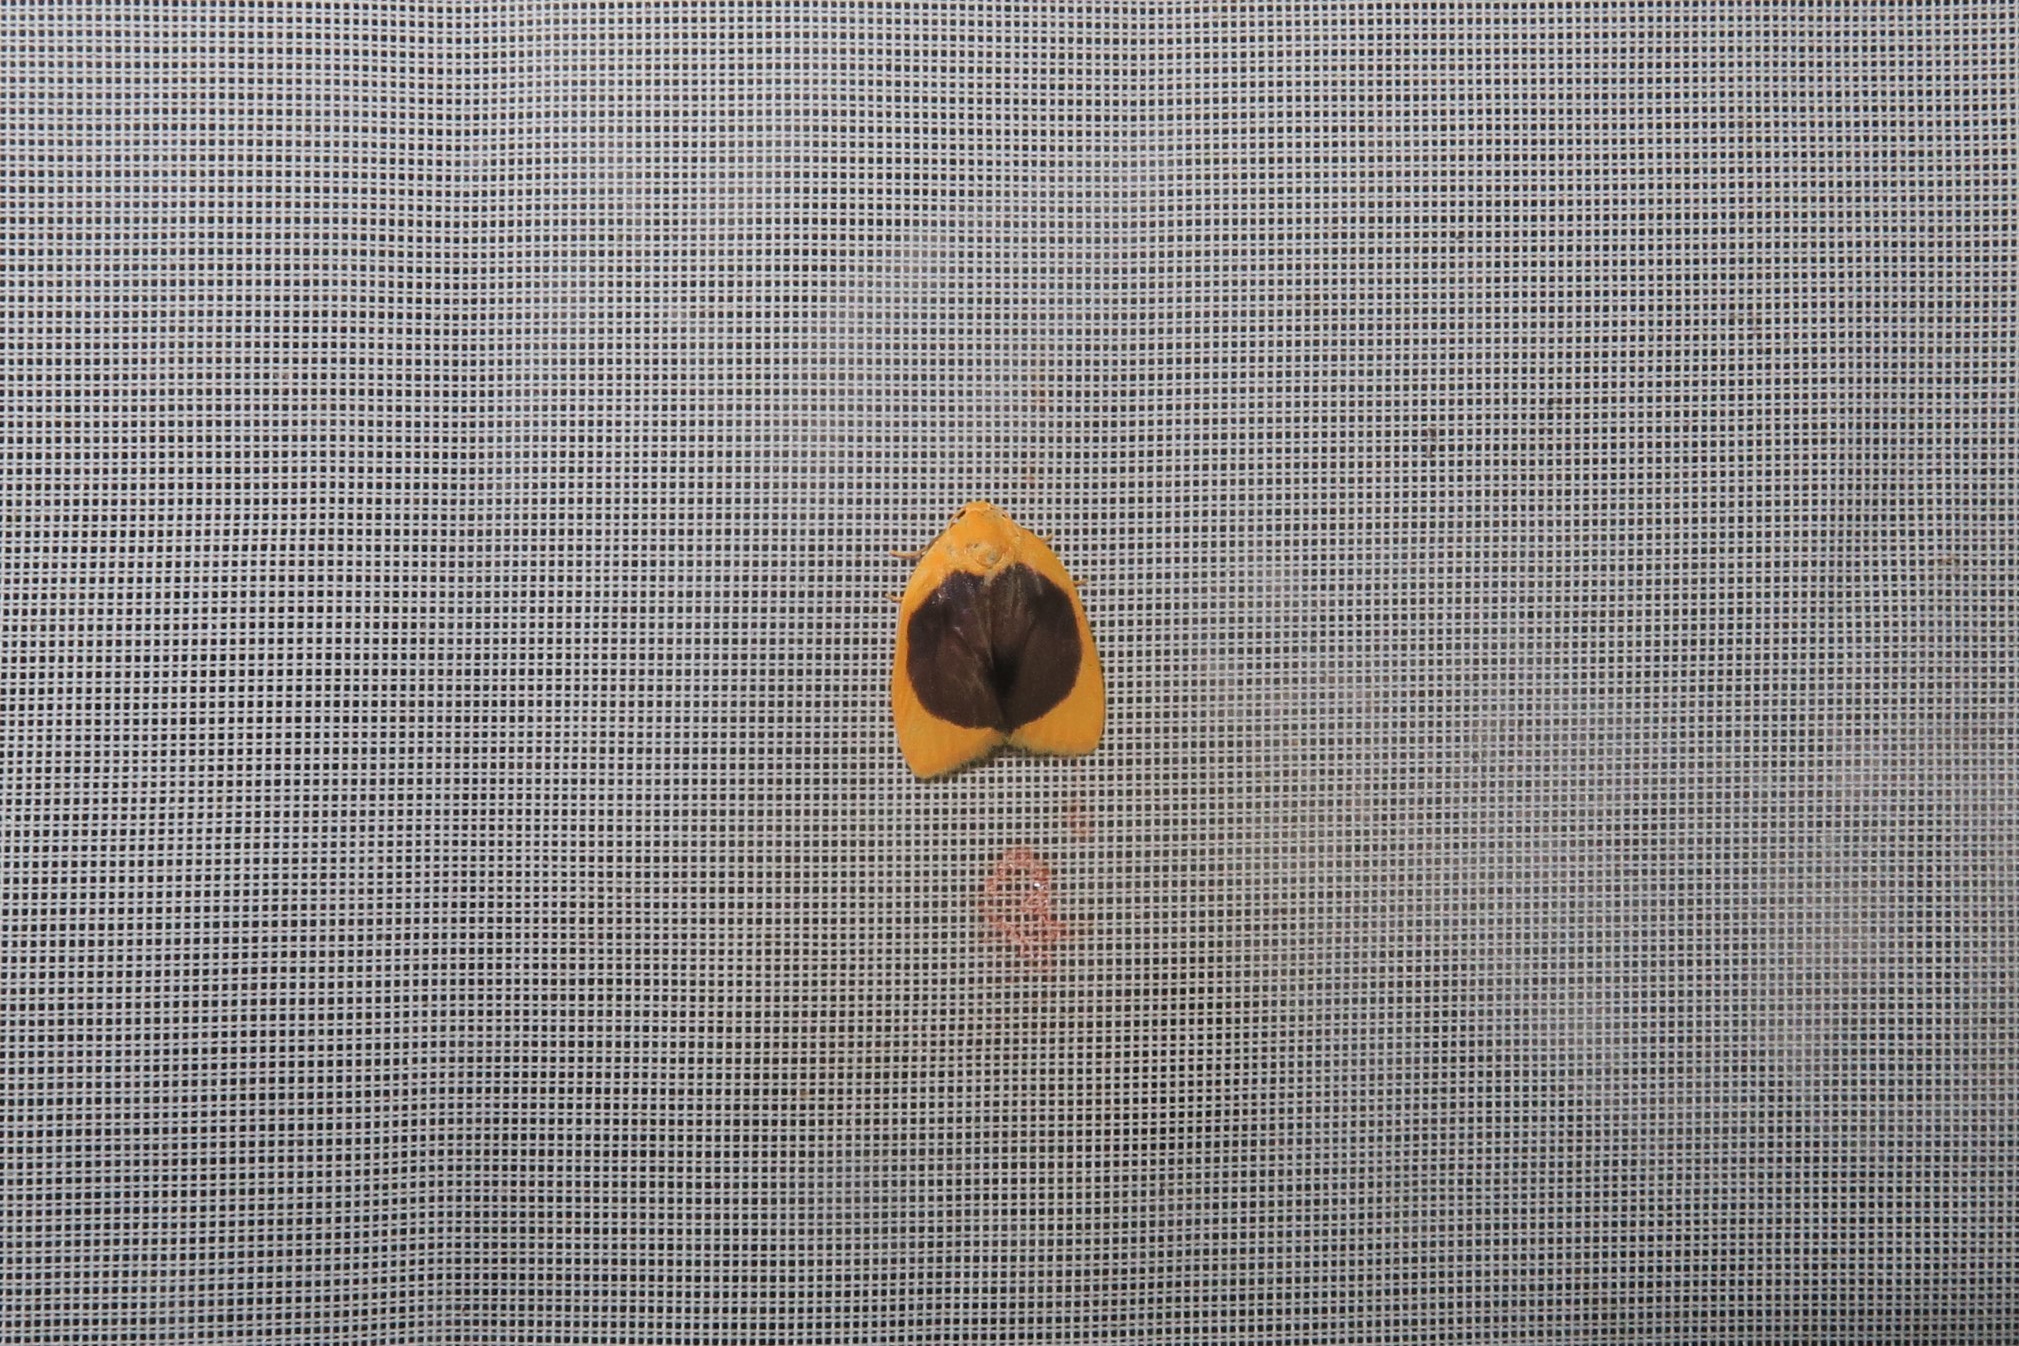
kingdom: Animalia
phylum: Arthropoda
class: Insecta
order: Lepidoptera
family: Erebidae
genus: Pronola
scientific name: Pronola magniplaga
